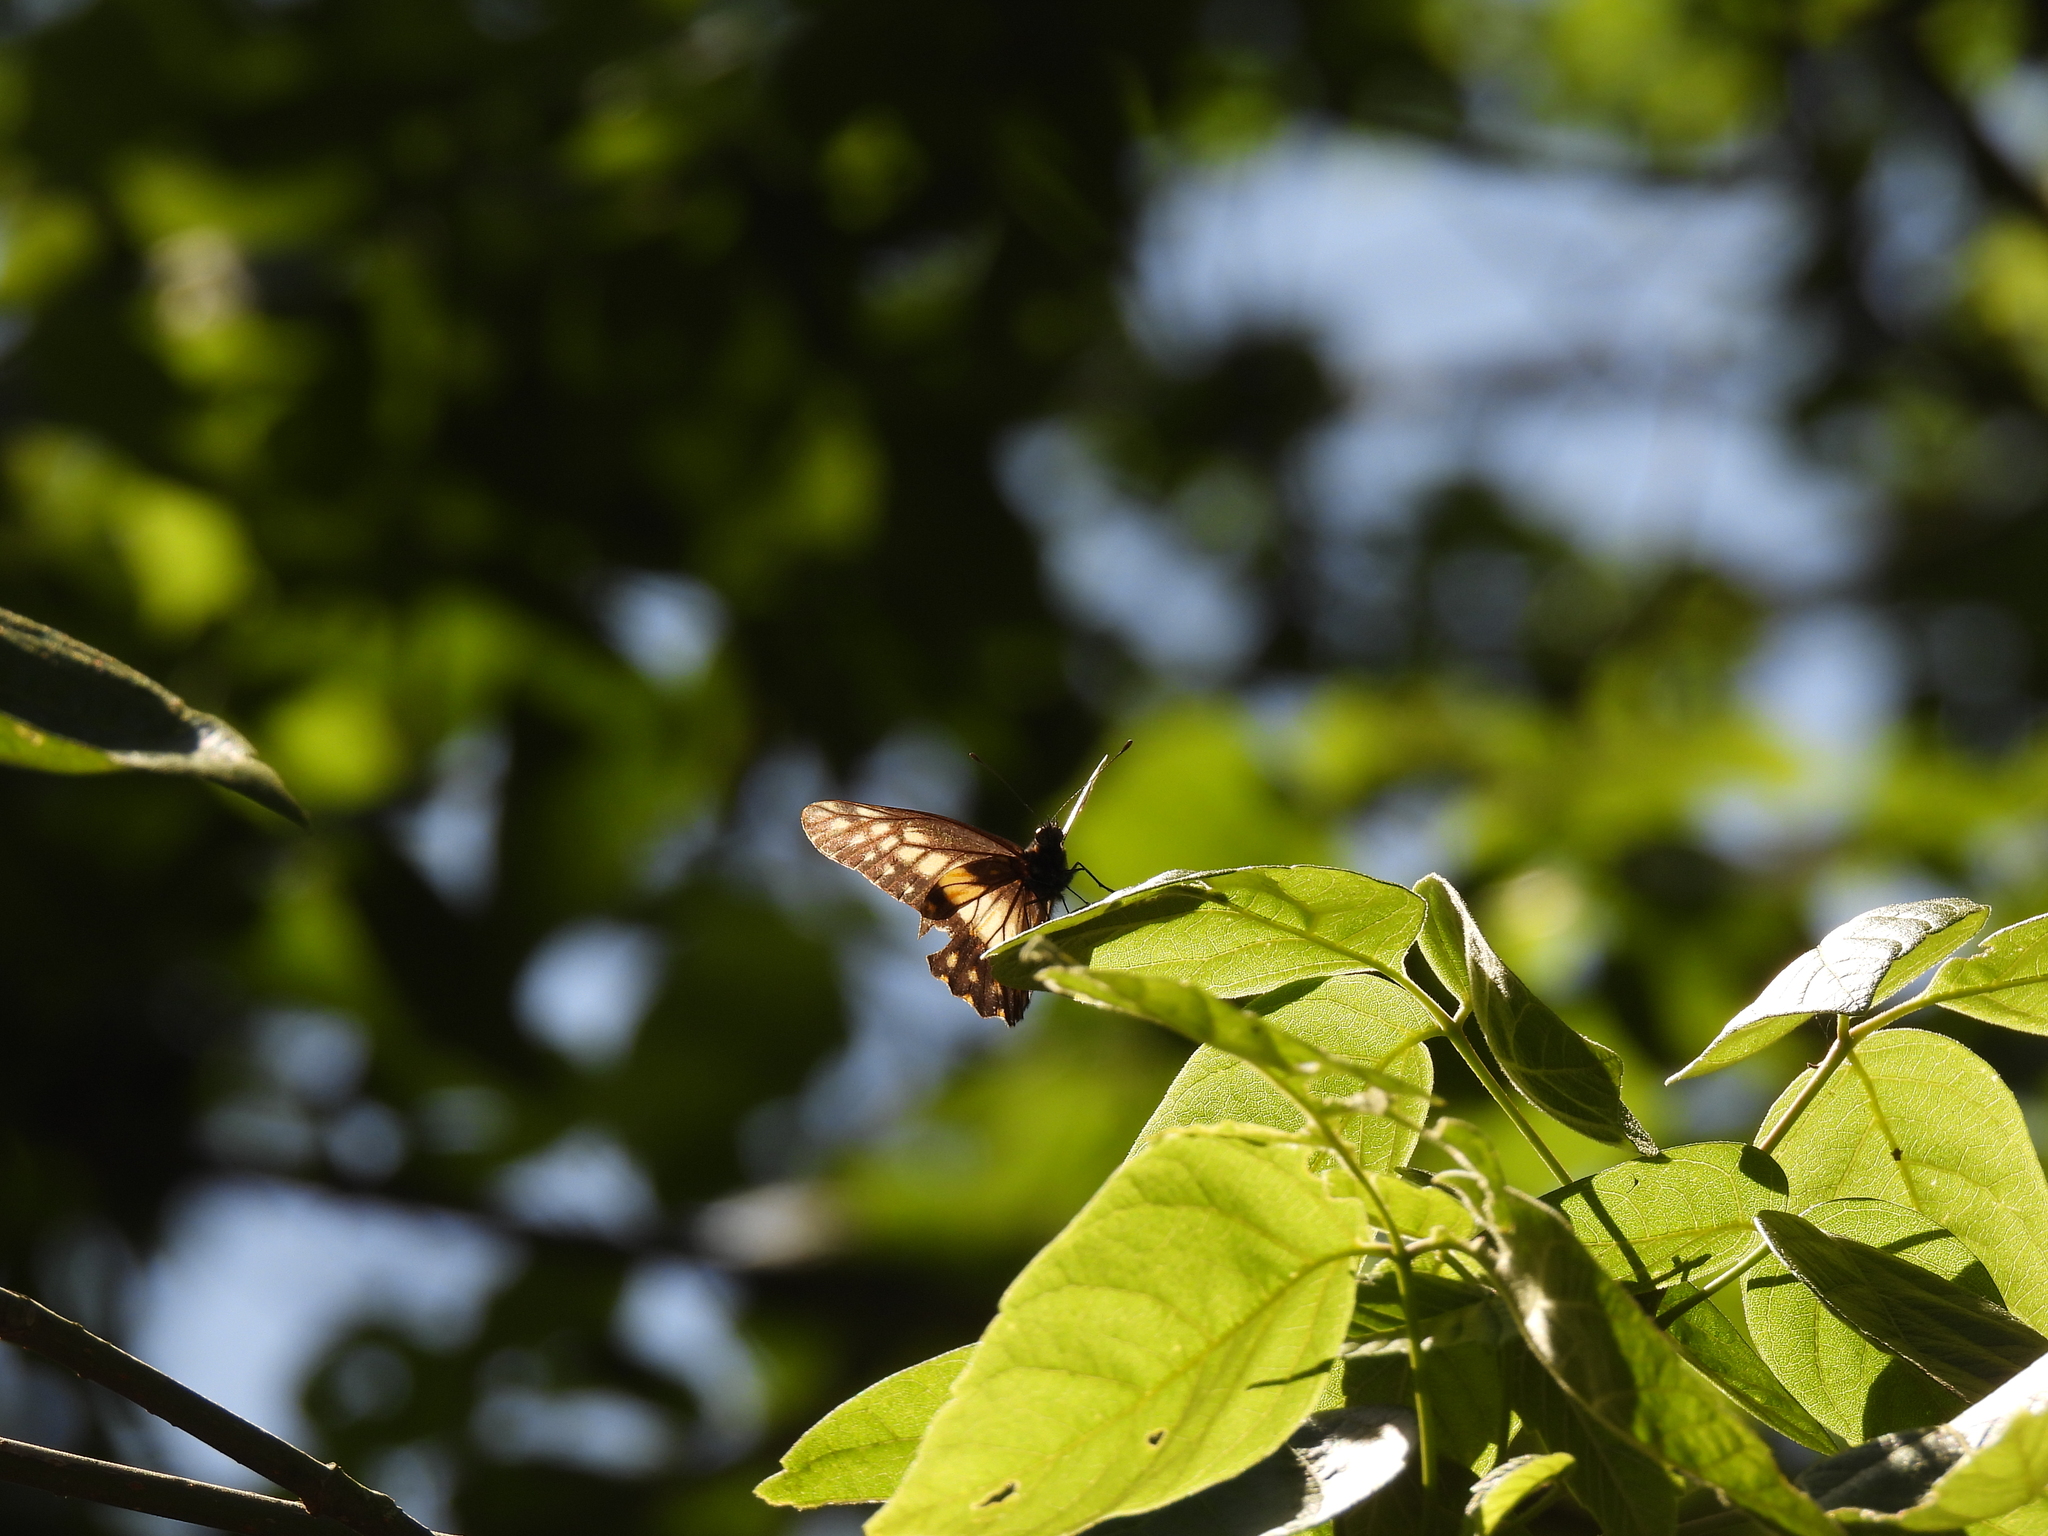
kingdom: Animalia
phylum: Arthropoda
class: Insecta
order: Lepidoptera
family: Pieridae
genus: Archonias
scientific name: Archonias nimbice
